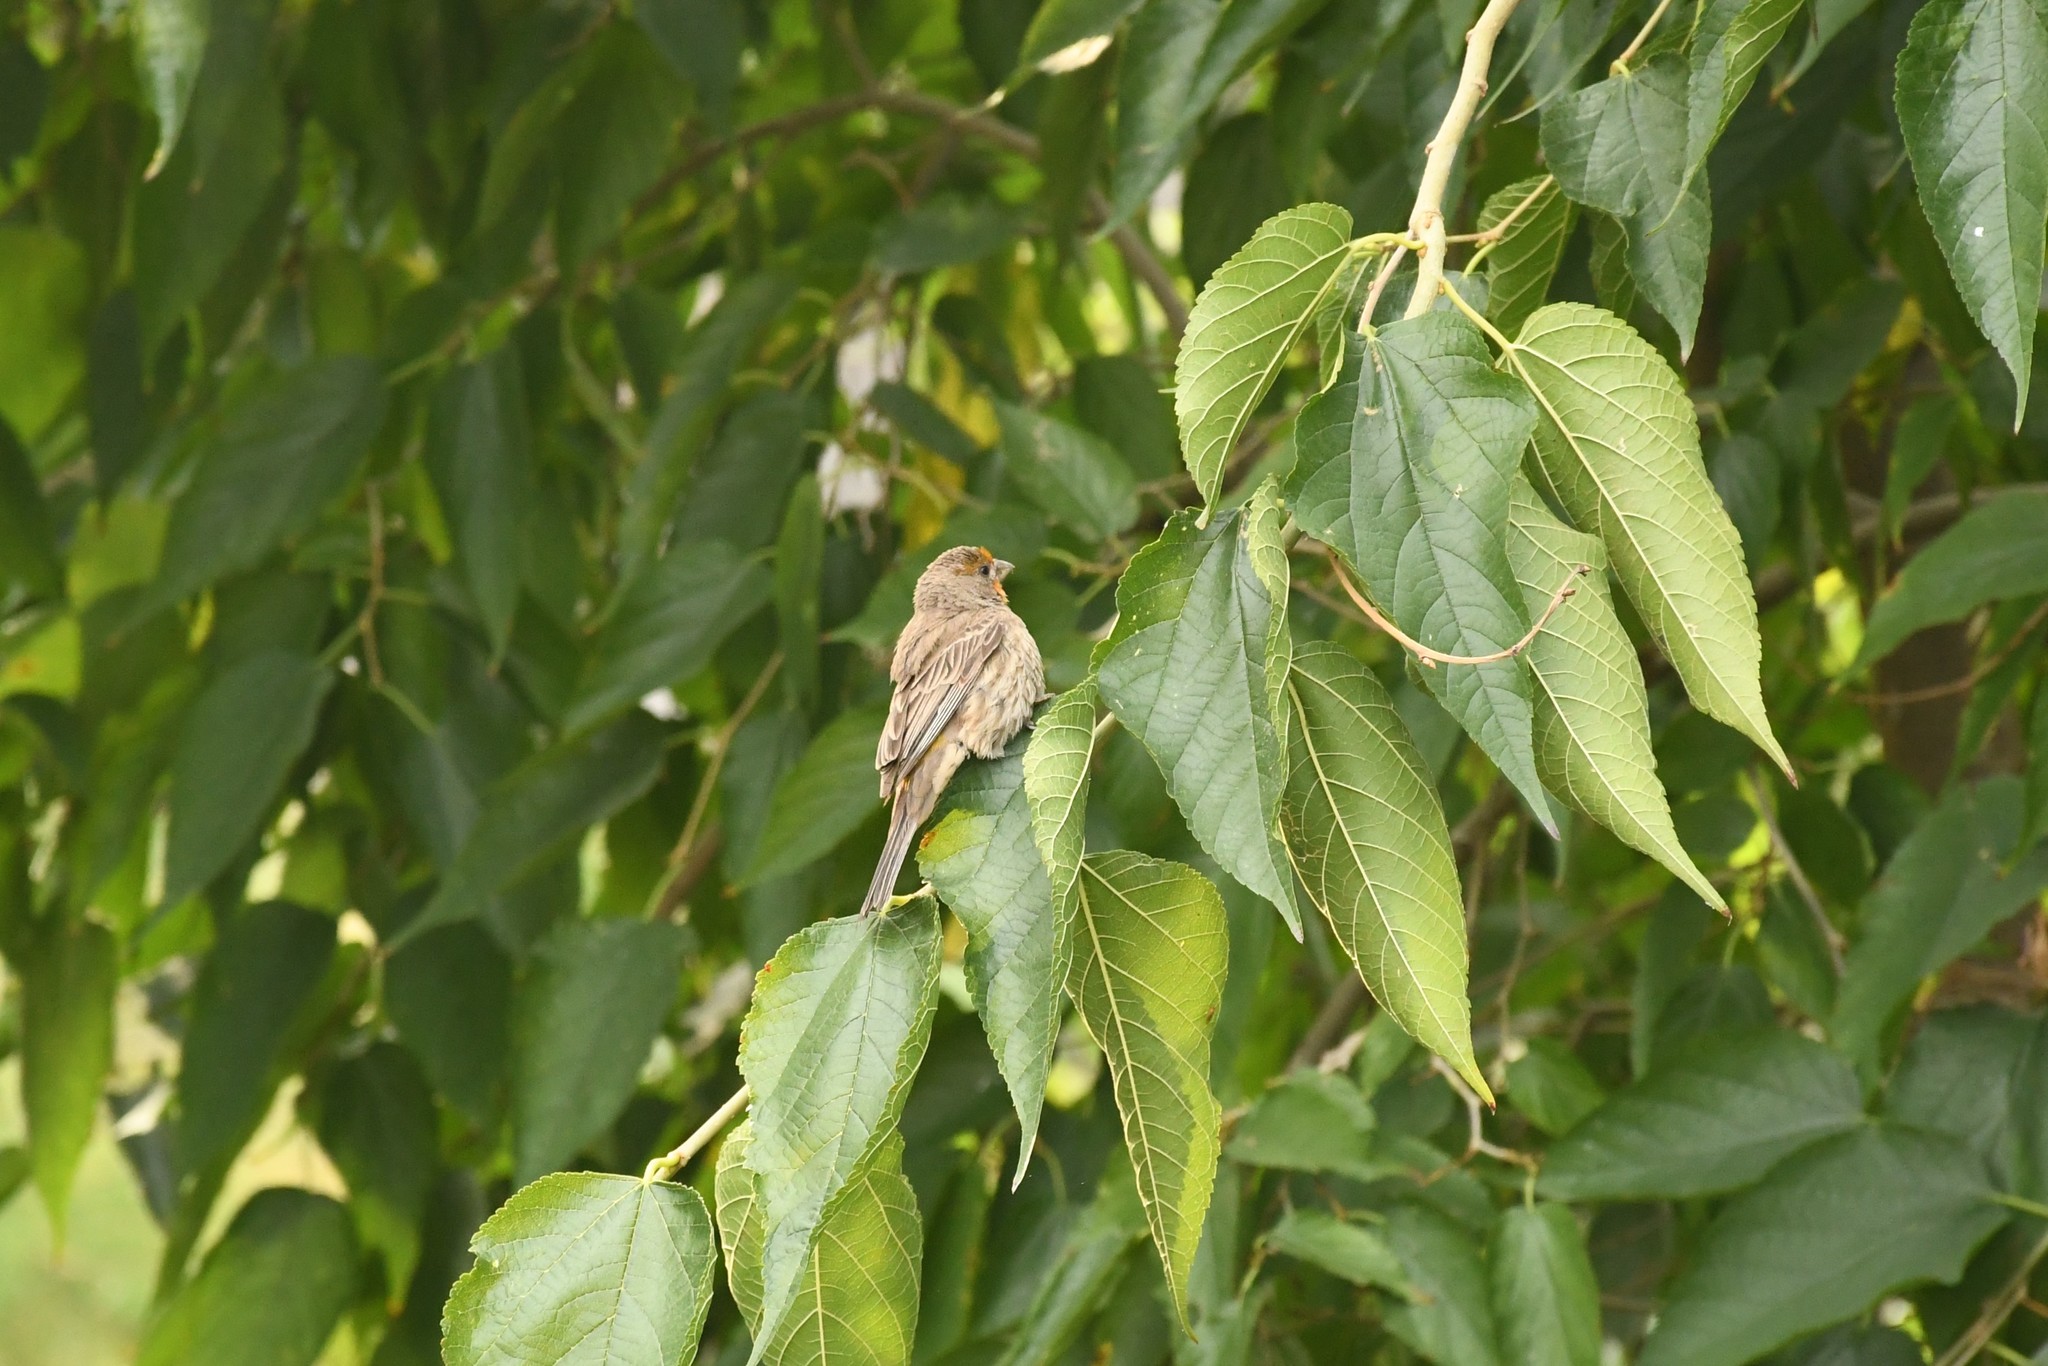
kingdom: Animalia
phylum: Chordata
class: Aves
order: Passeriformes
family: Fringillidae
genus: Haemorhous
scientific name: Haemorhous mexicanus
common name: House finch
